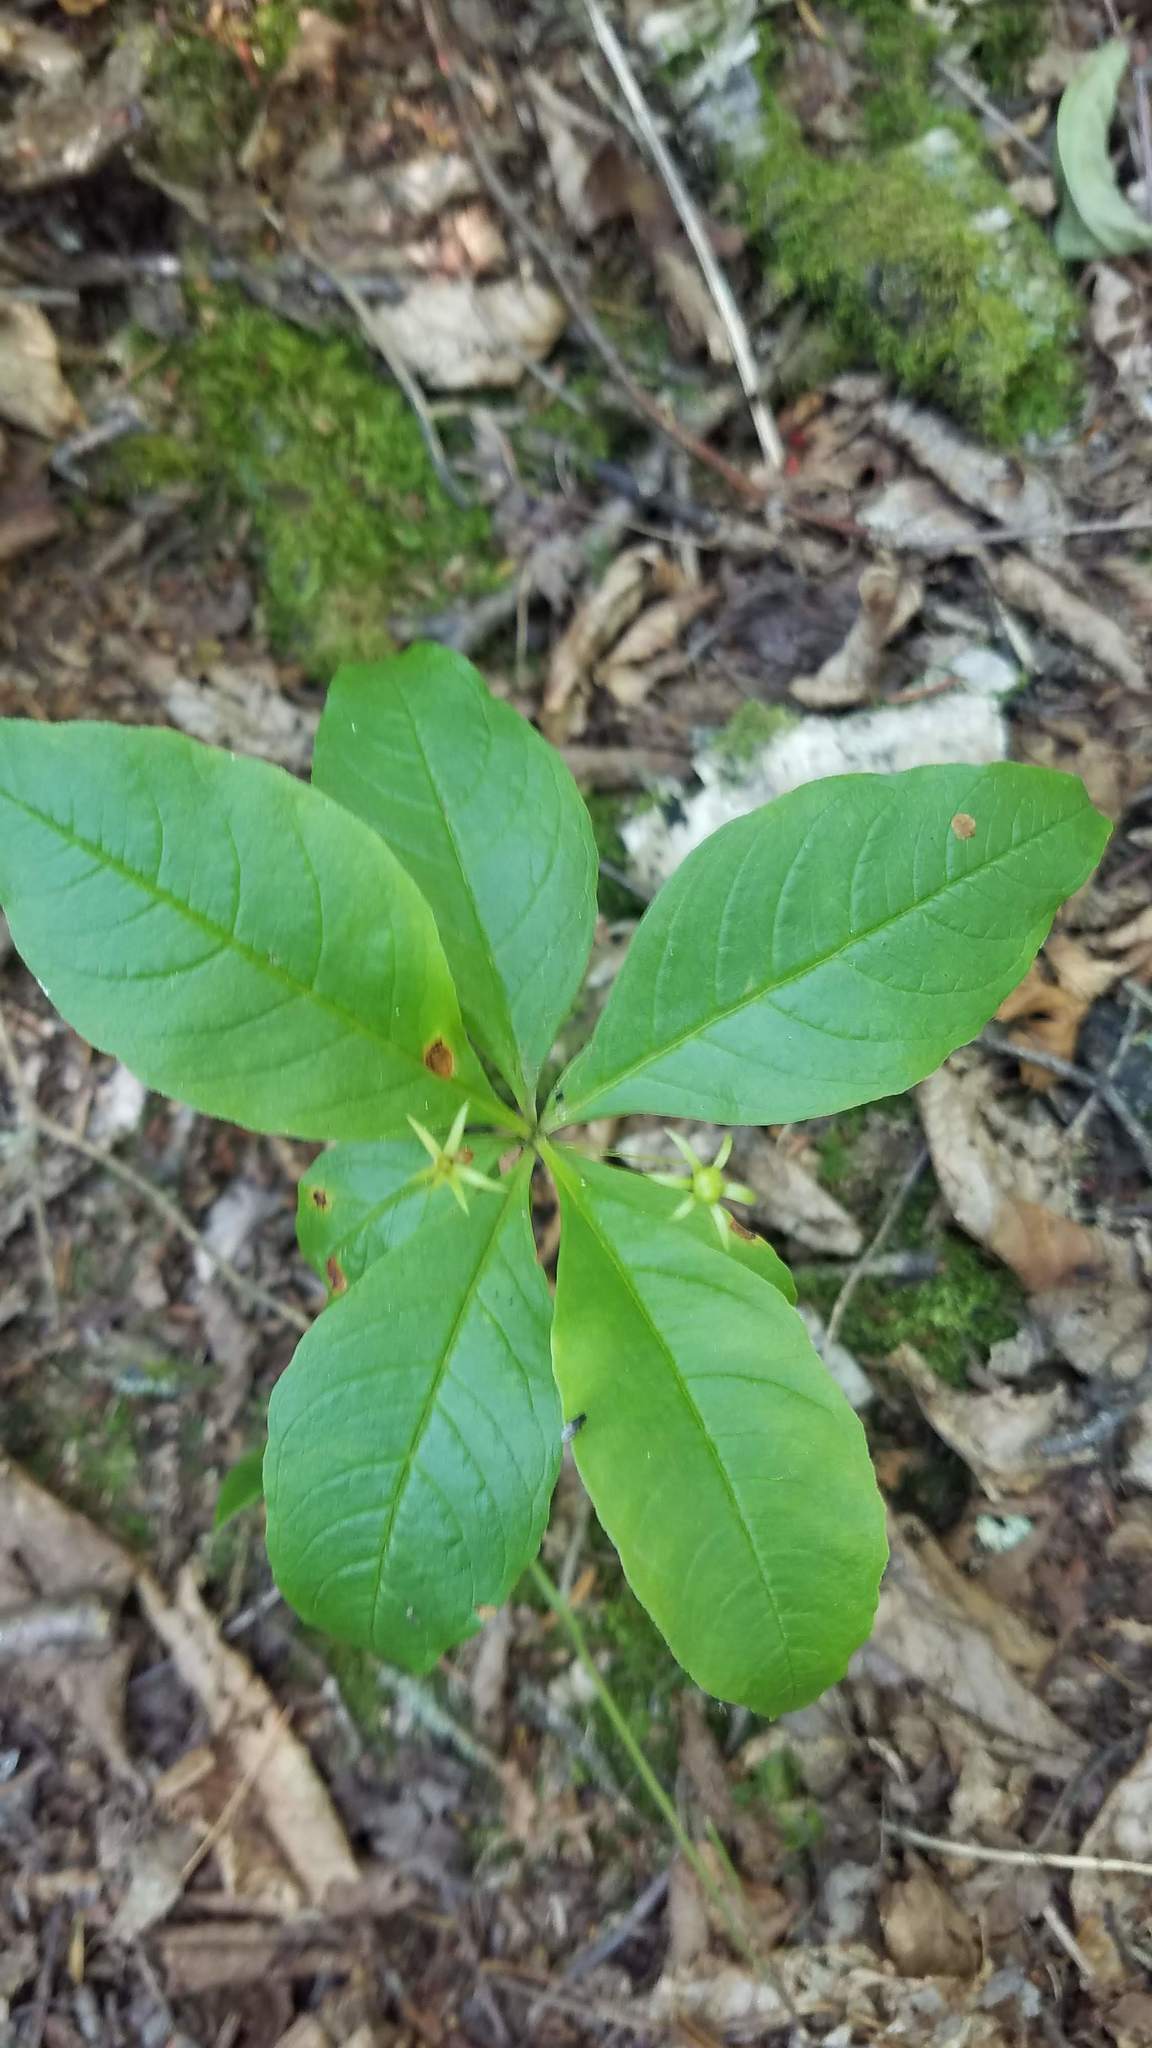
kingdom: Plantae
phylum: Tracheophyta
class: Magnoliopsida
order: Ericales
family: Primulaceae
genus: Lysimachia
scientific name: Lysimachia borealis
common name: American starflower
